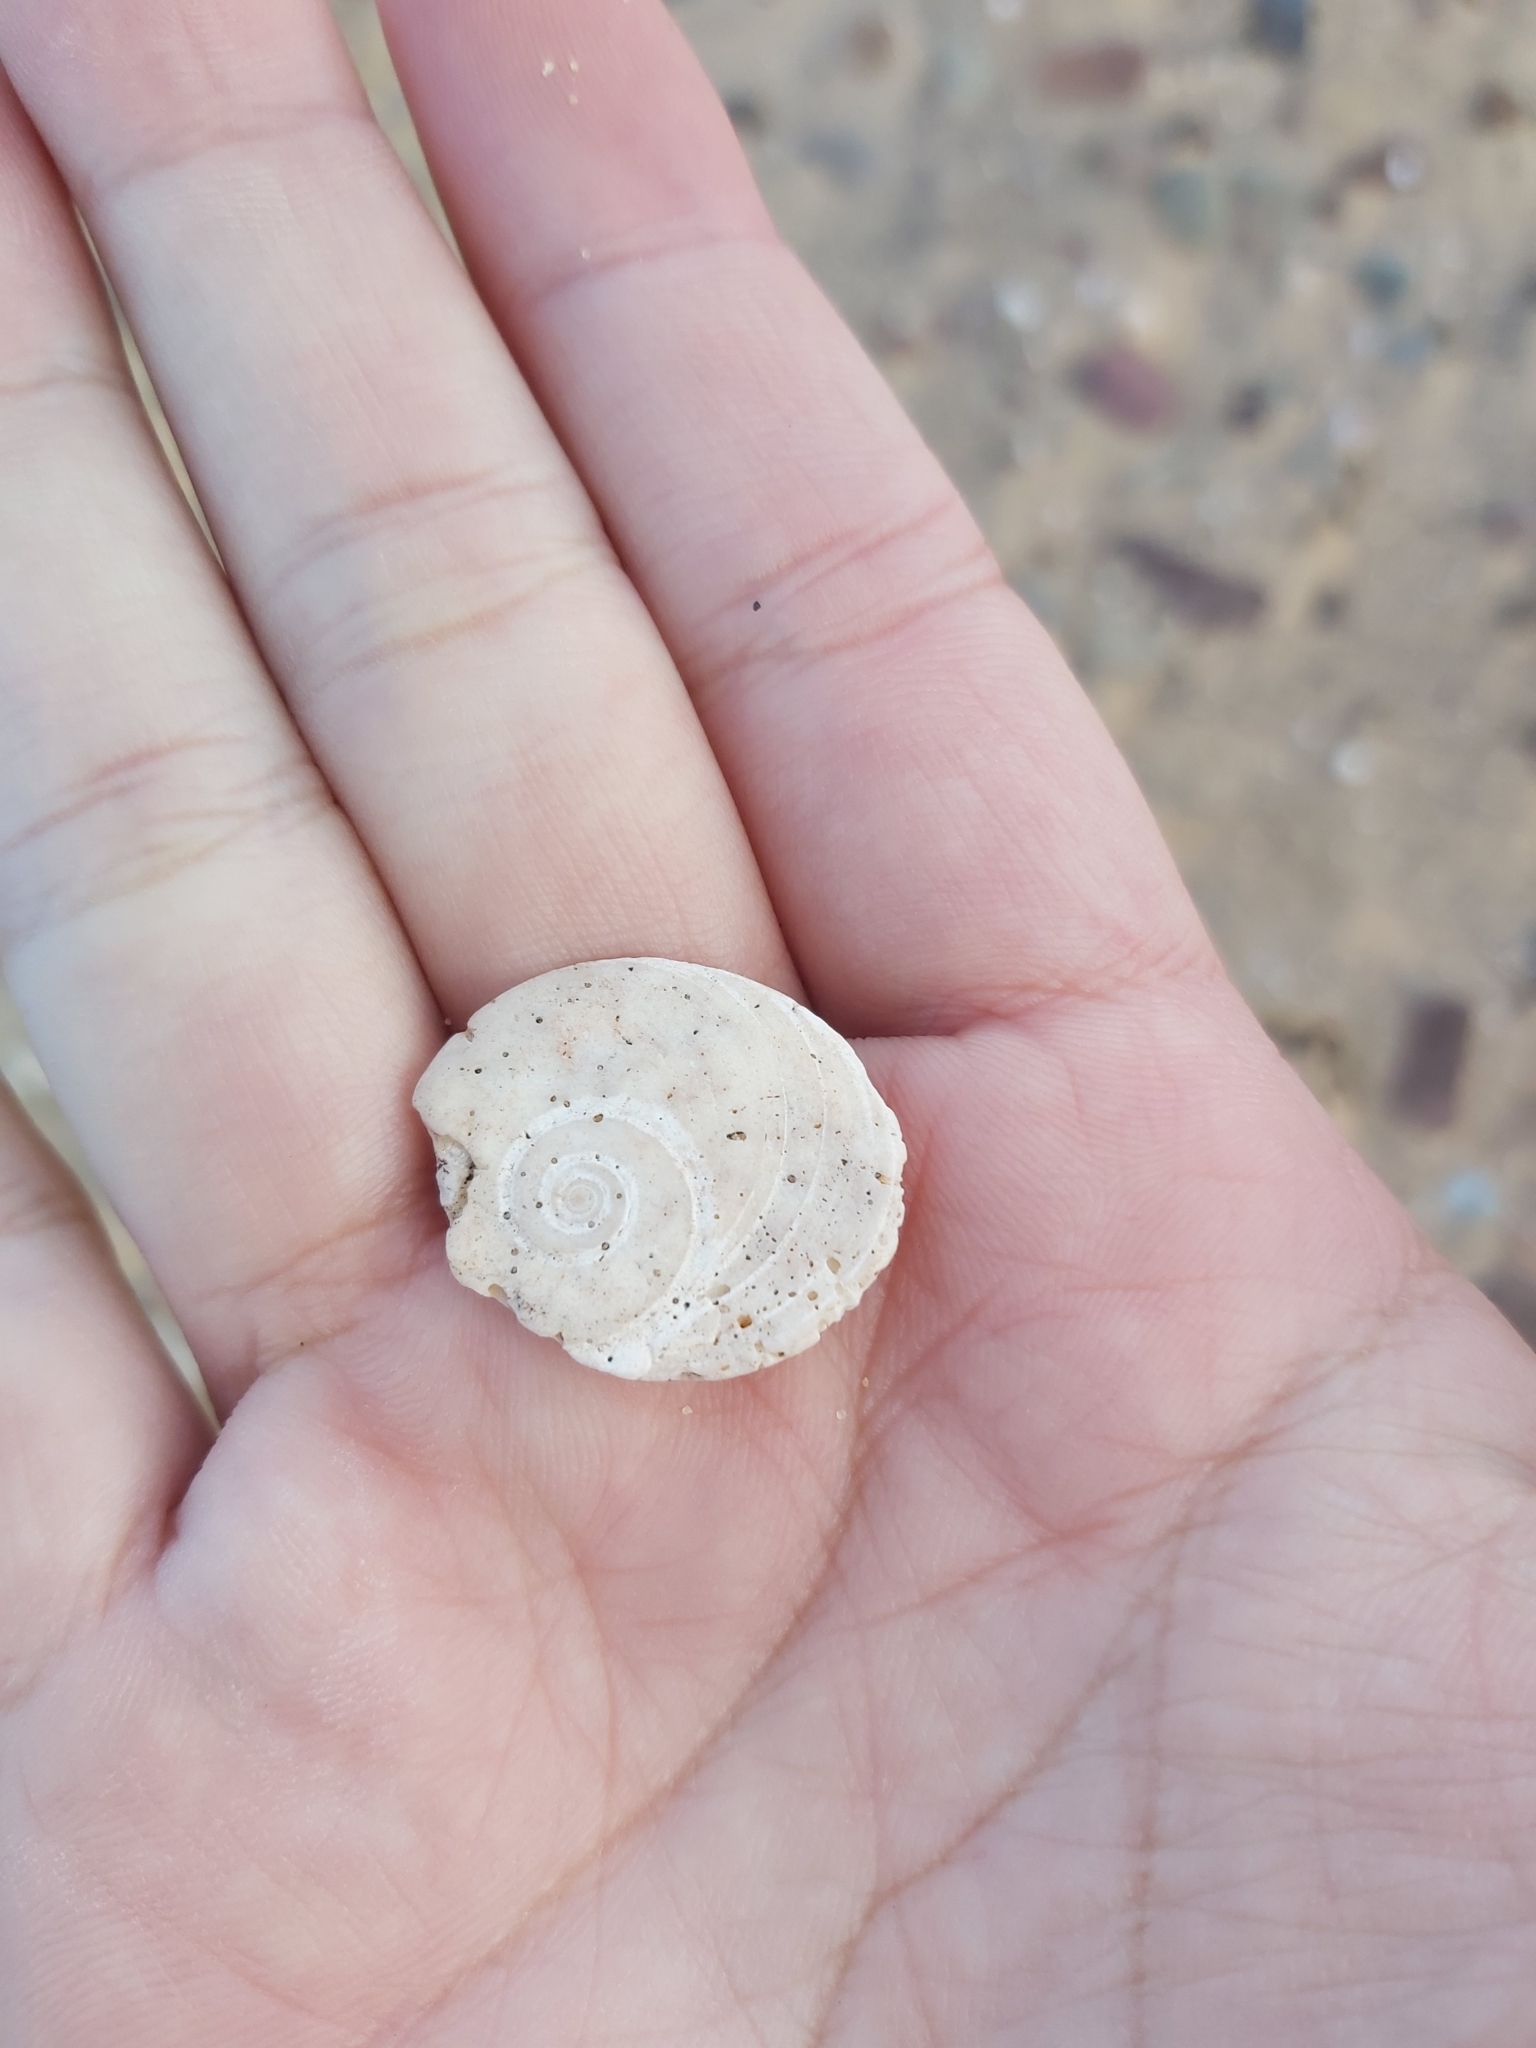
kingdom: Animalia
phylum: Mollusca
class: Gastropoda
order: Trochida
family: Turbinidae
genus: Lunella
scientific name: Lunella torquata
